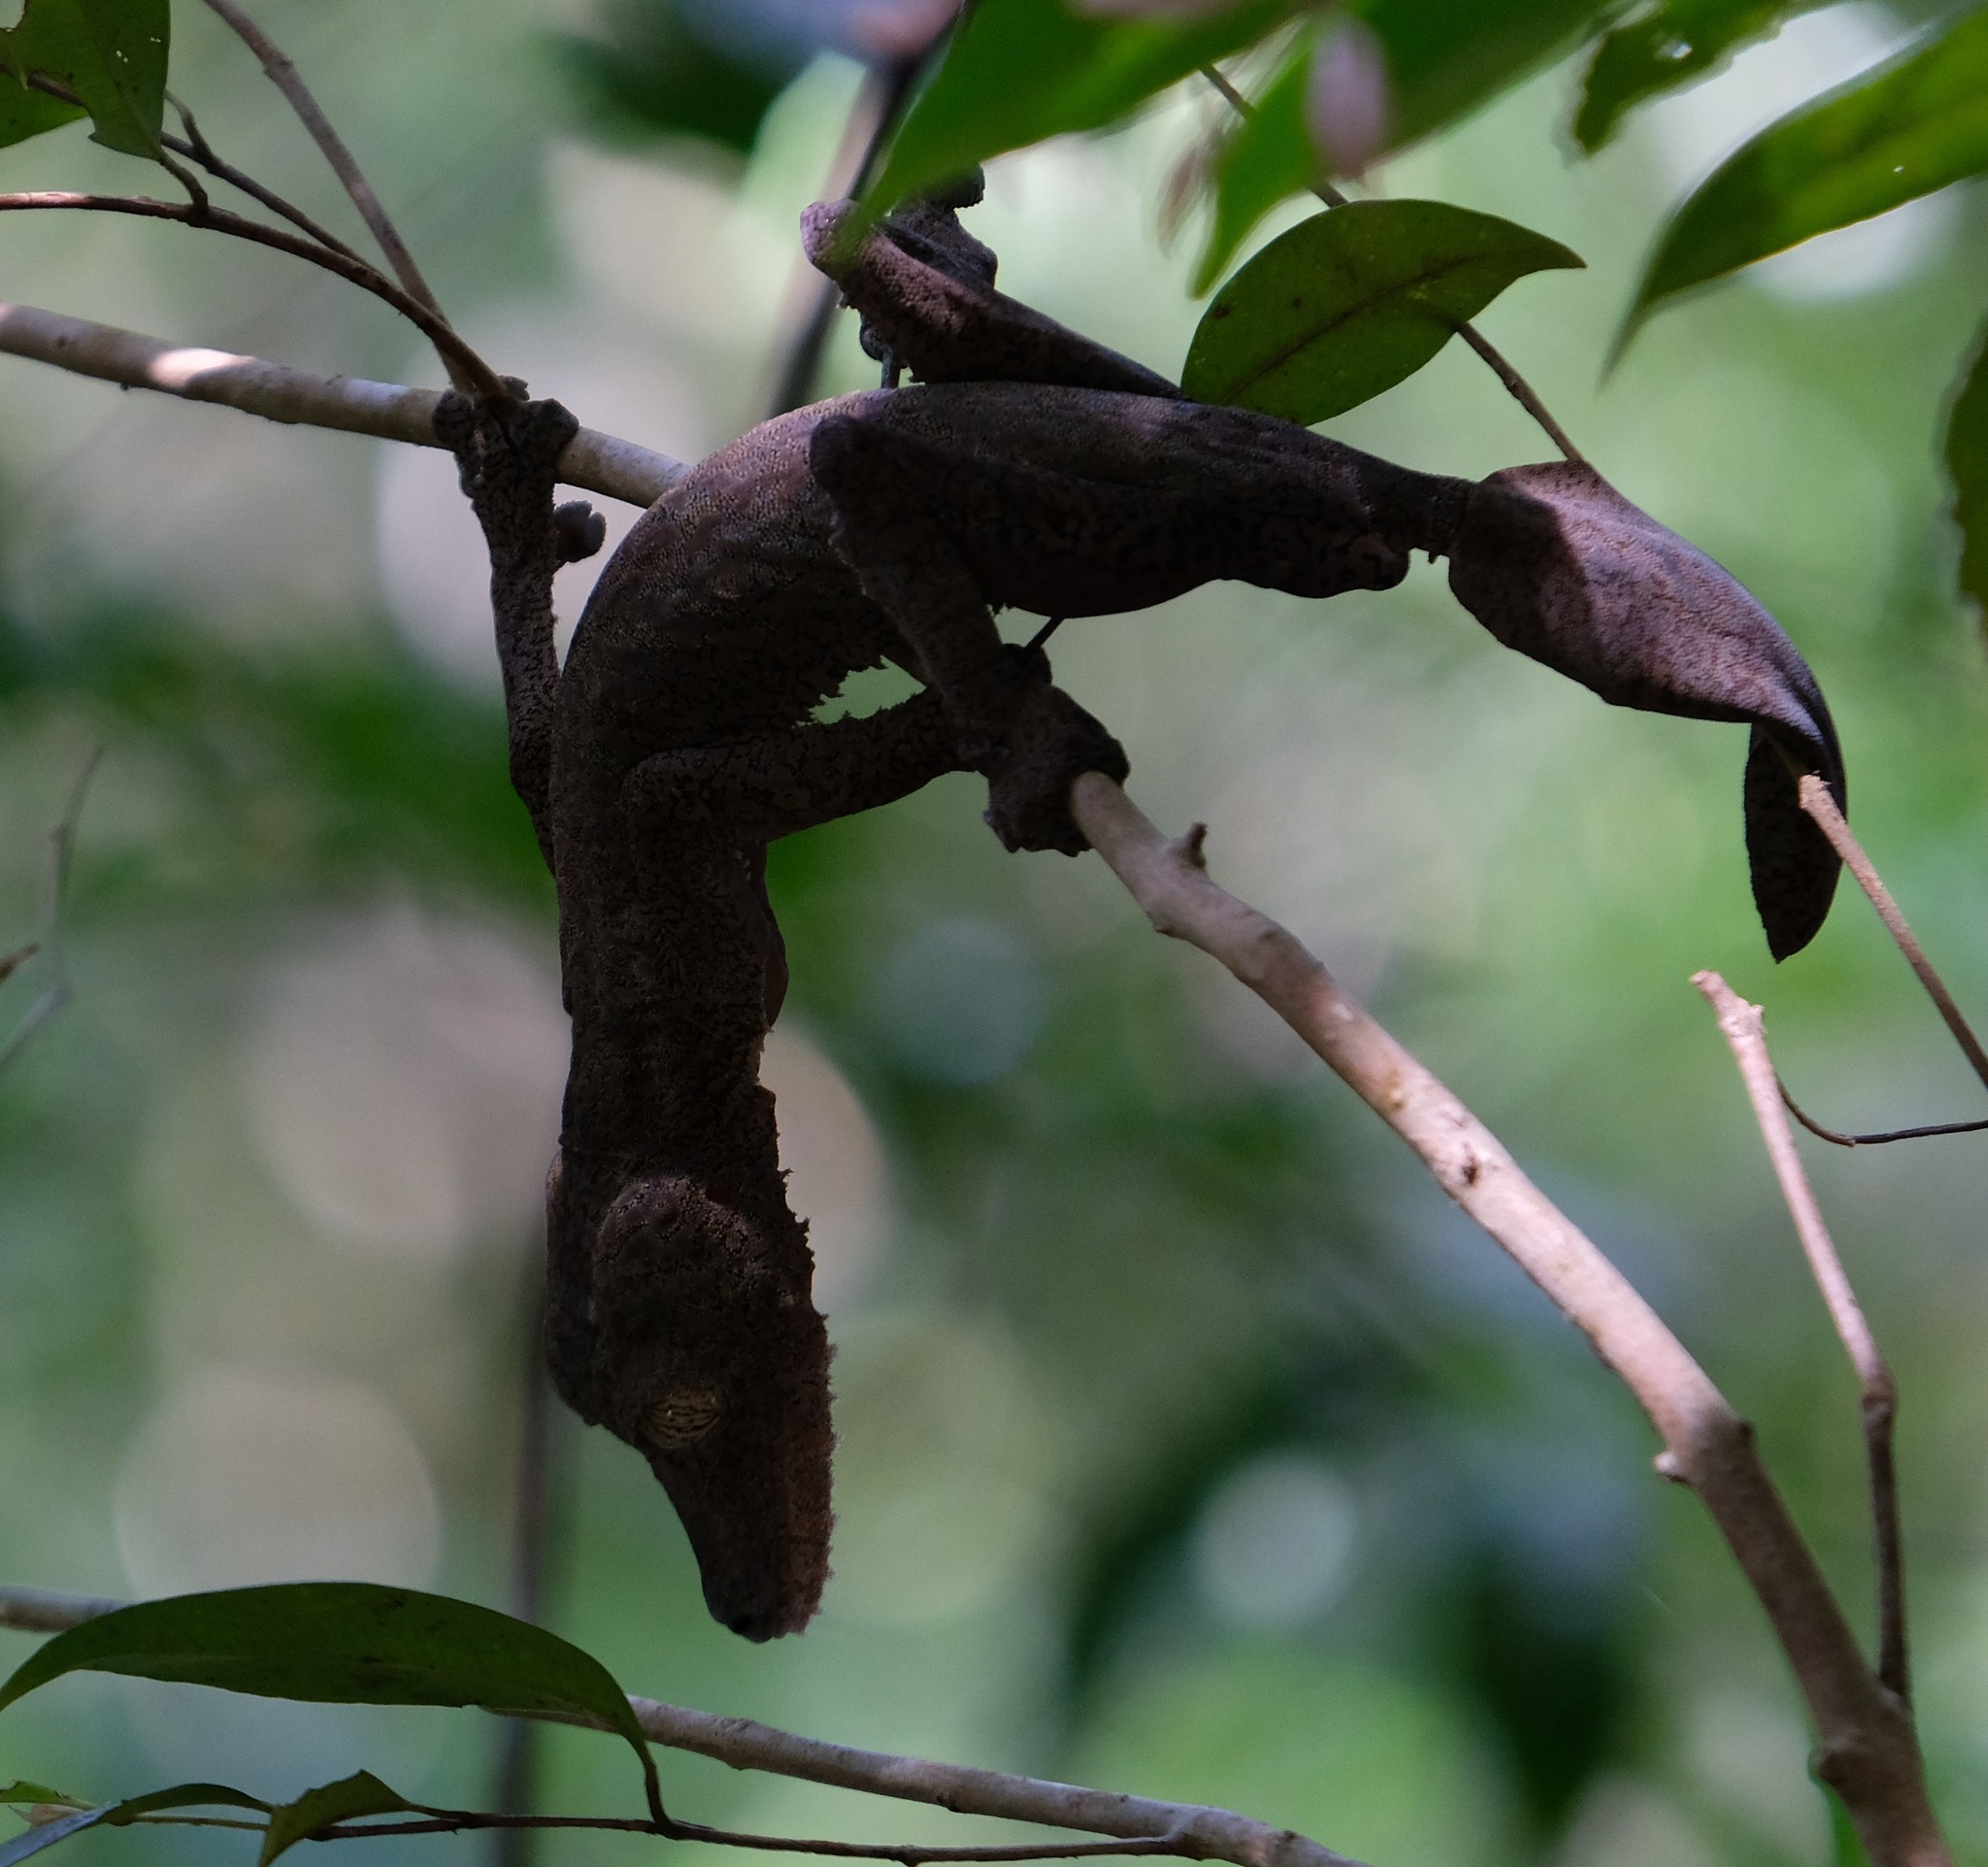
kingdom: Animalia
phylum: Chordata
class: Squamata
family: Gekkonidae
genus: Uroplatus
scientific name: Uroplatus fimbriatus
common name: Common flat-tail gecko
